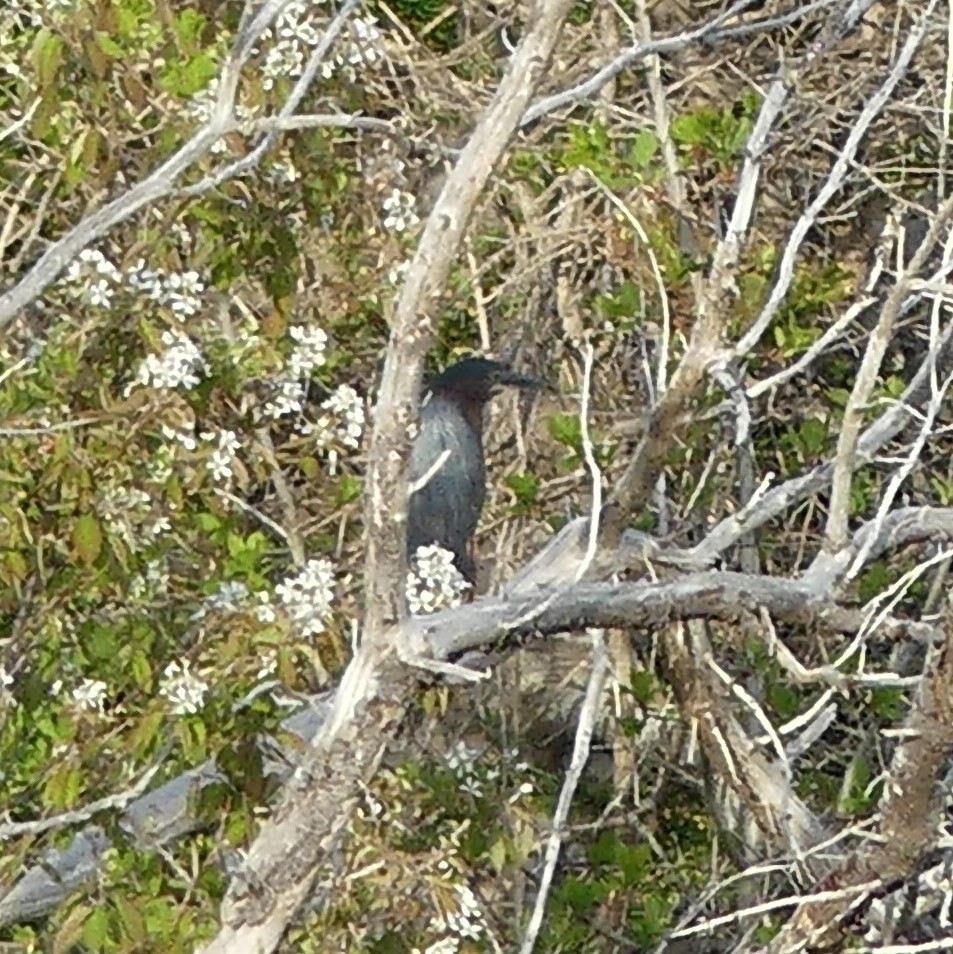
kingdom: Animalia
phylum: Chordata
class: Aves
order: Pelecaniformes
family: Ardeidae
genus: Butorides
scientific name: Butorides virescens
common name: Green heron
